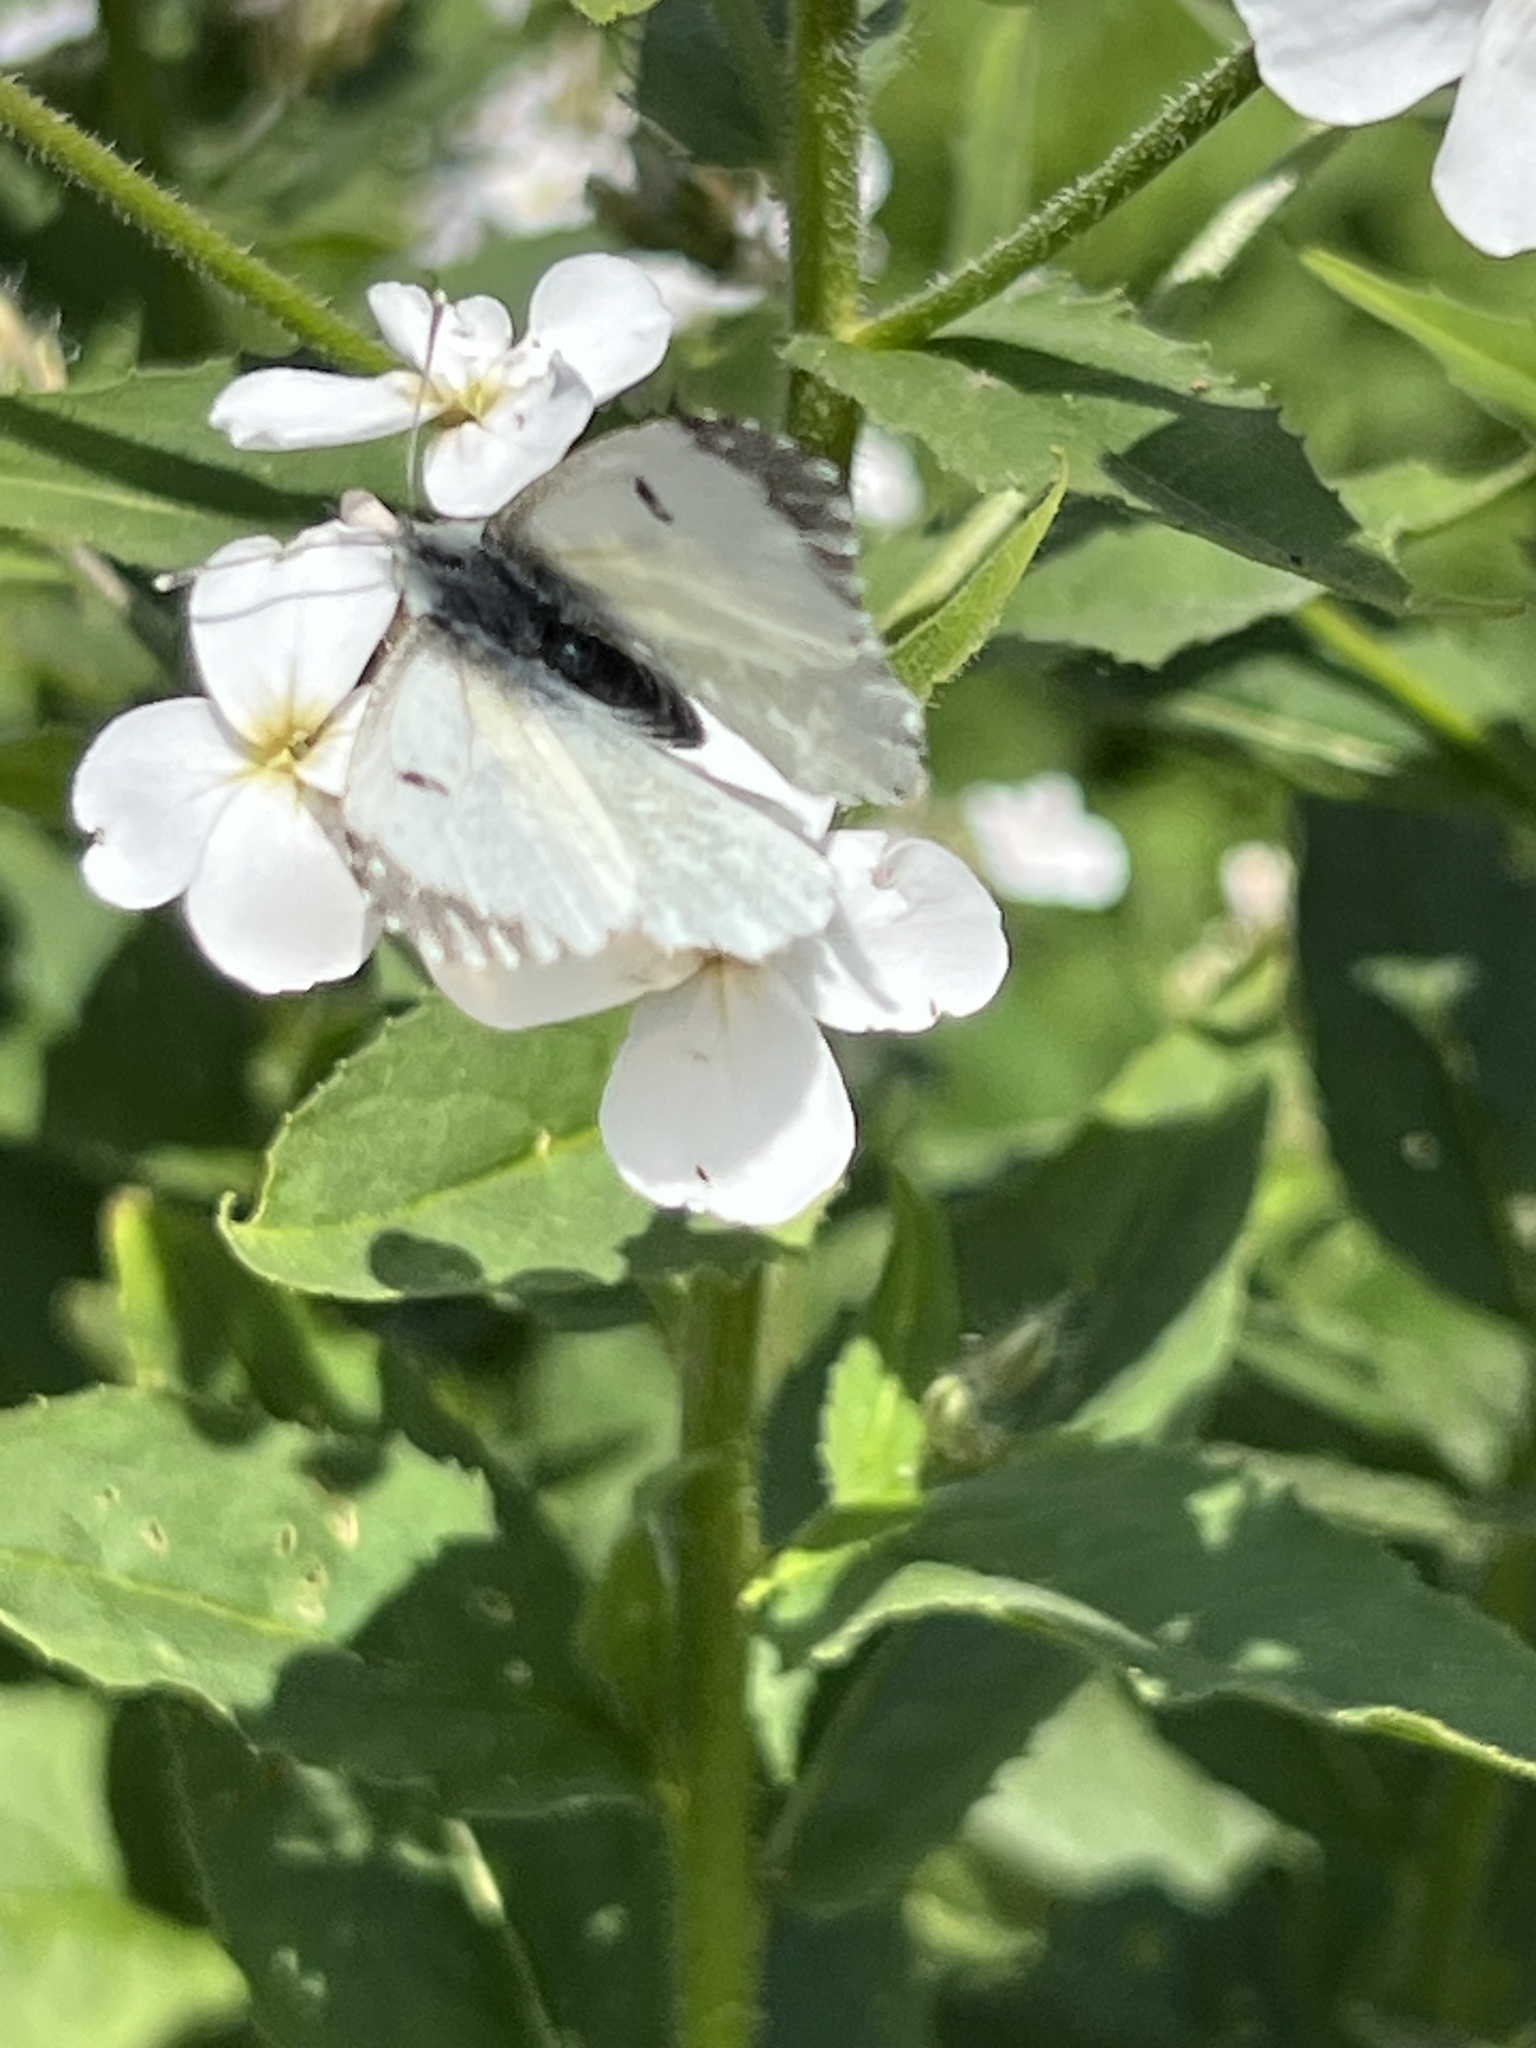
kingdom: Animalia
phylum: Arthropoda
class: Insecta
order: Lepidoptera
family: Pieridae
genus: Anthocharis
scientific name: Anthocharis cardamines
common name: Orange-tip
